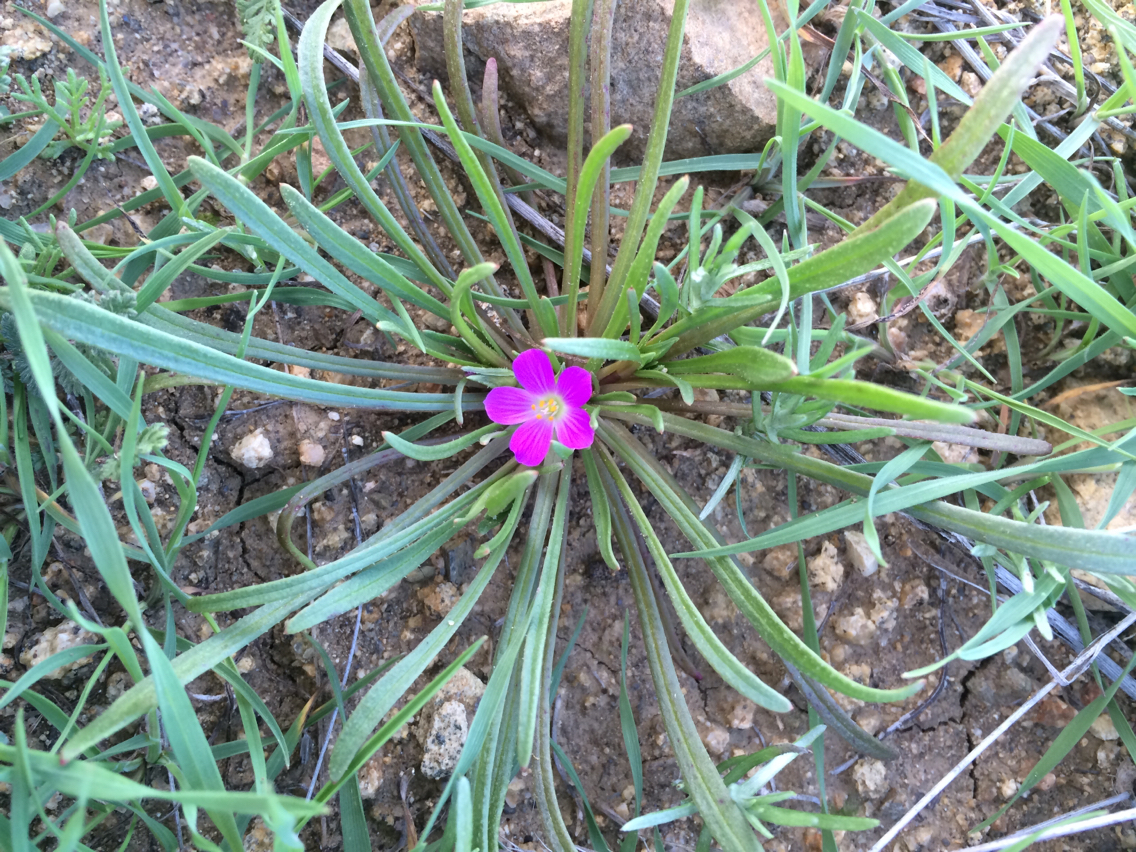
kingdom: Plantae
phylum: Tracheophyta
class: Magnoliopsida
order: Caryophyllales
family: Montiaceae
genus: Calandrinia
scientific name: Calandrinia menziesii
